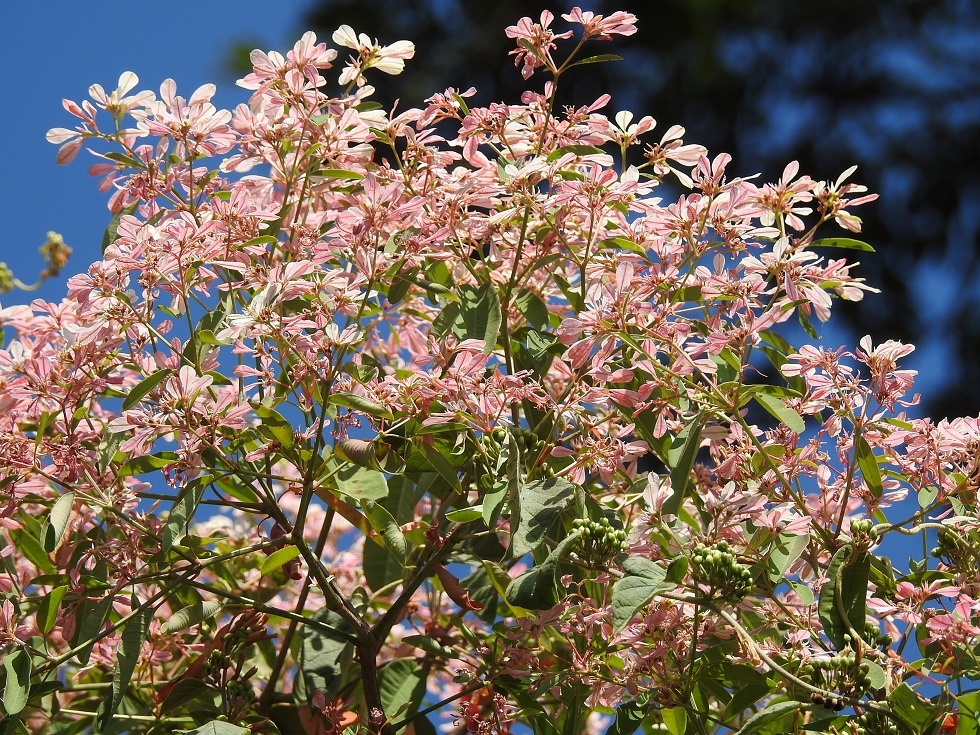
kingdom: Plantae
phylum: Tracheophyta
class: Magnoliopsida
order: Malpighiales
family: Euphorbiaceae
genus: Euphorbia
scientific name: Euphorbia leucocephala
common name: Pascuita
